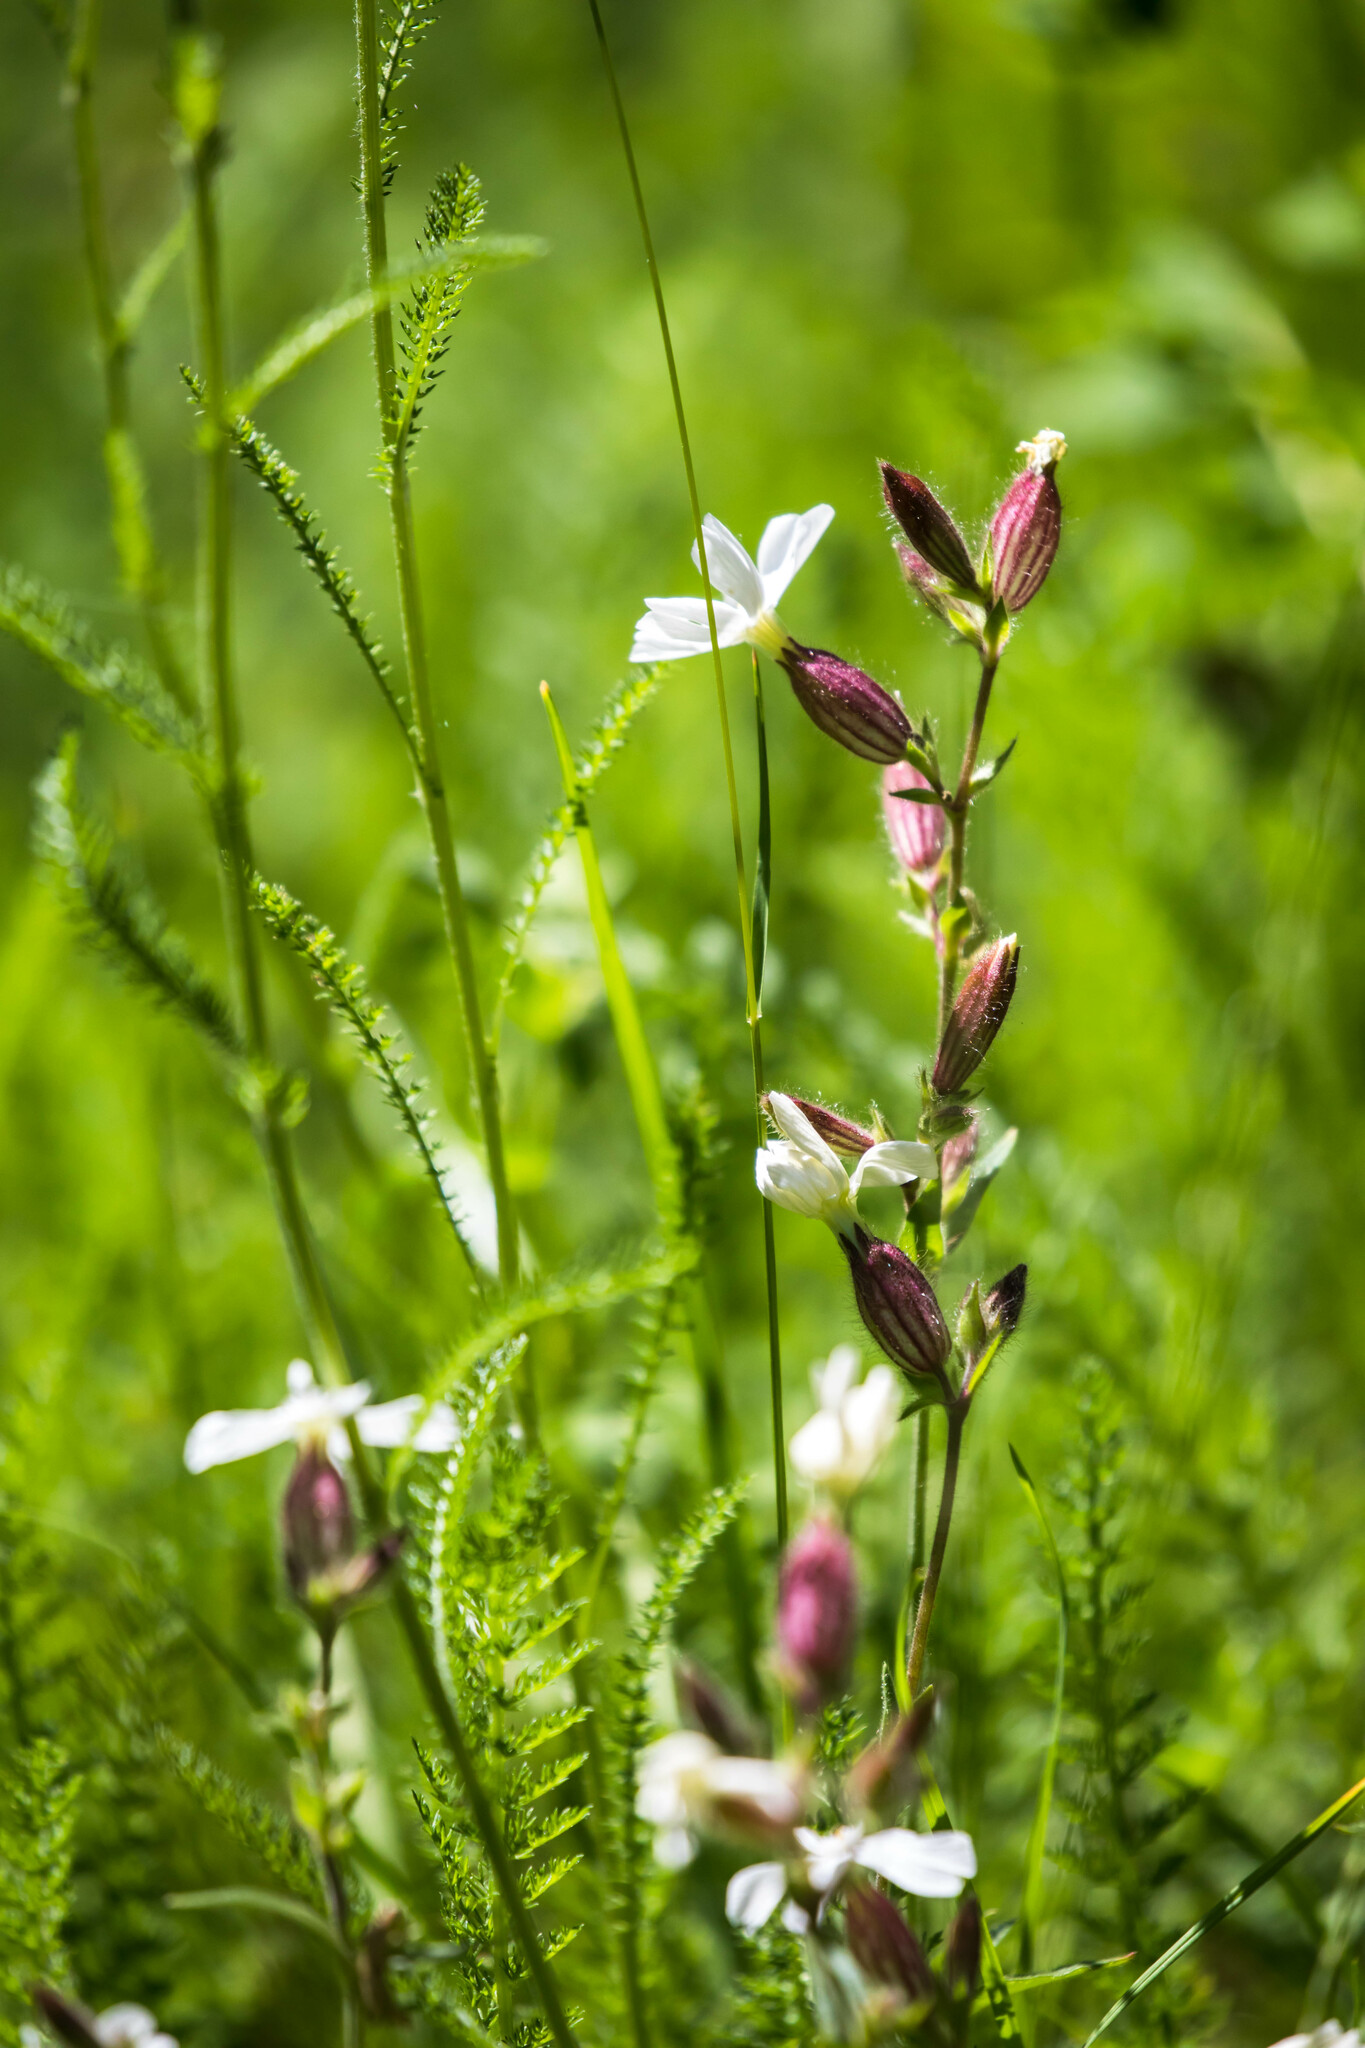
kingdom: Plantae
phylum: Tracheophyta
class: Magnoliopsida
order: Caryophyllales
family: Caryophyllaceae
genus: Silene
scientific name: Silene latifolia
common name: White campion
